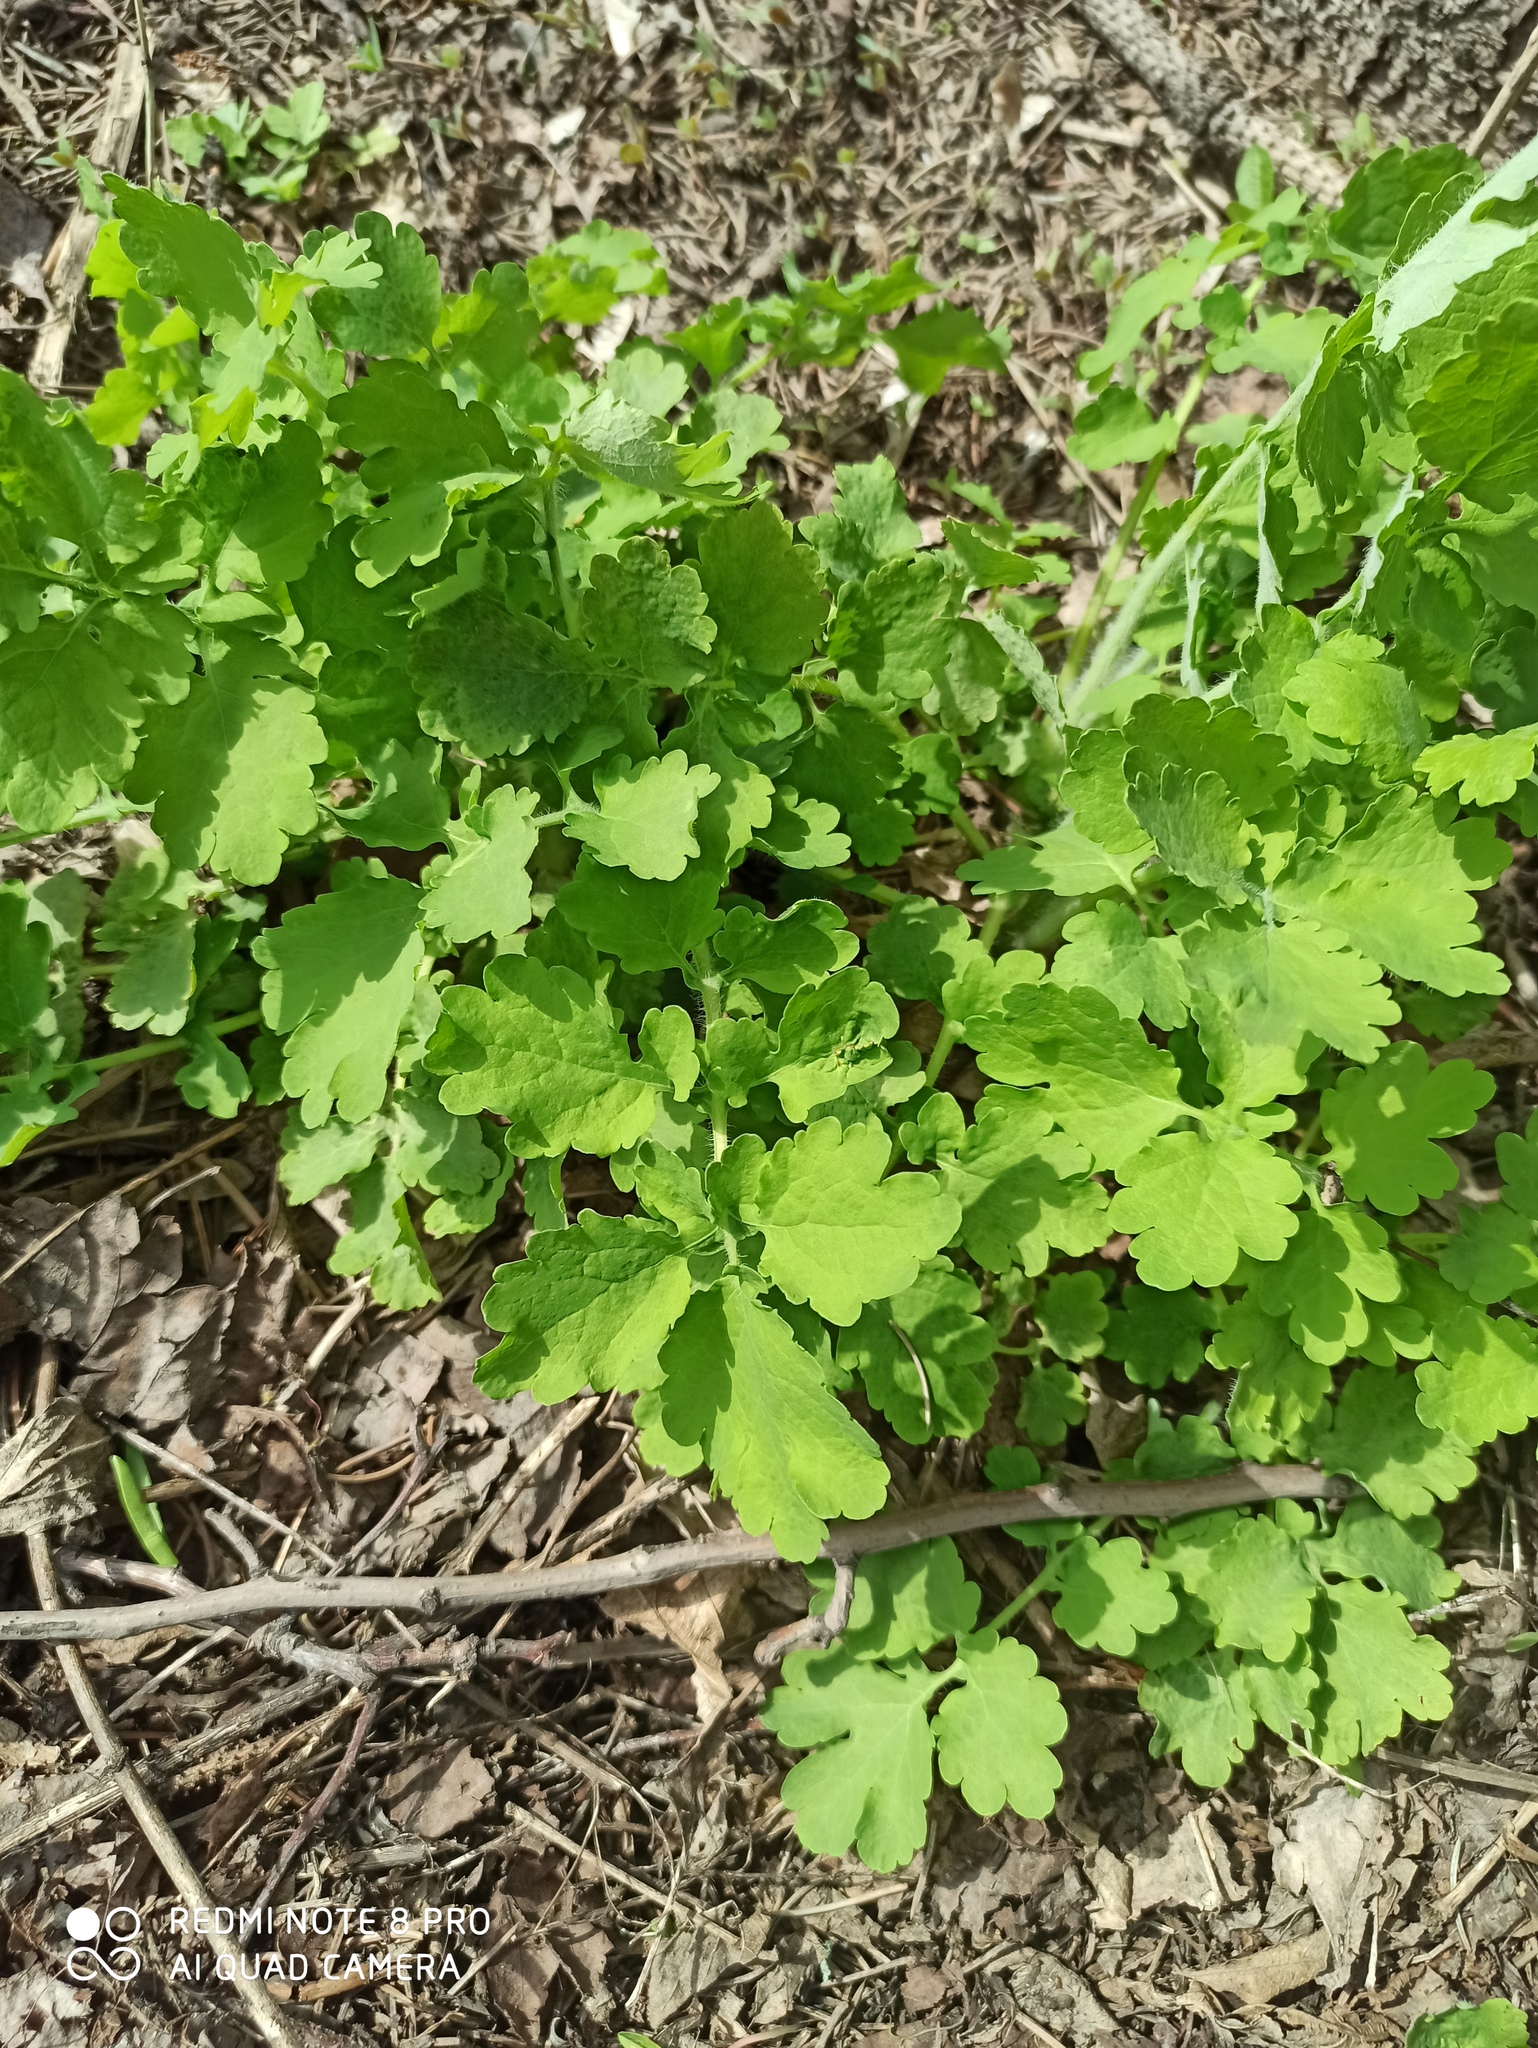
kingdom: Plantae
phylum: Tracheophyta
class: Magnoliopsida
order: Ranunculales
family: Papaveraceae
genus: Chelidonium
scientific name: Chelidonium majus
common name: Greater celandine
